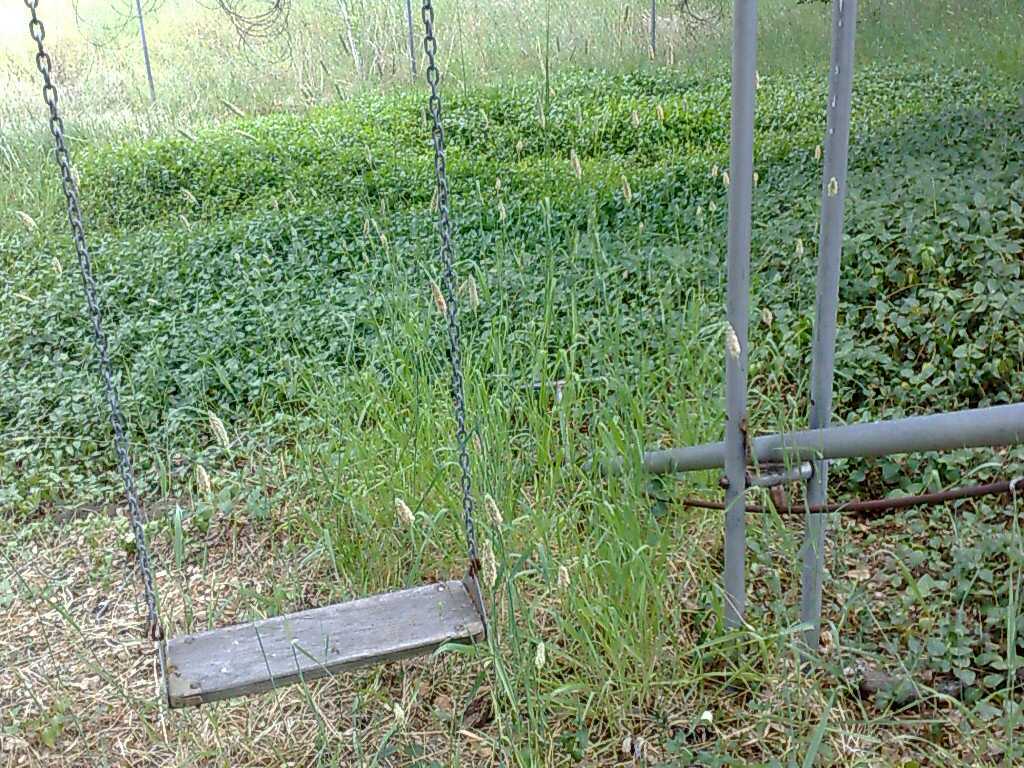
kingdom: Plantae
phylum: Tracheophyta
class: Liliopsida
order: Poales
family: Poaceae
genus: Phalaris
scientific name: Phalaris aquatica
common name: Bulbous canary-grass
